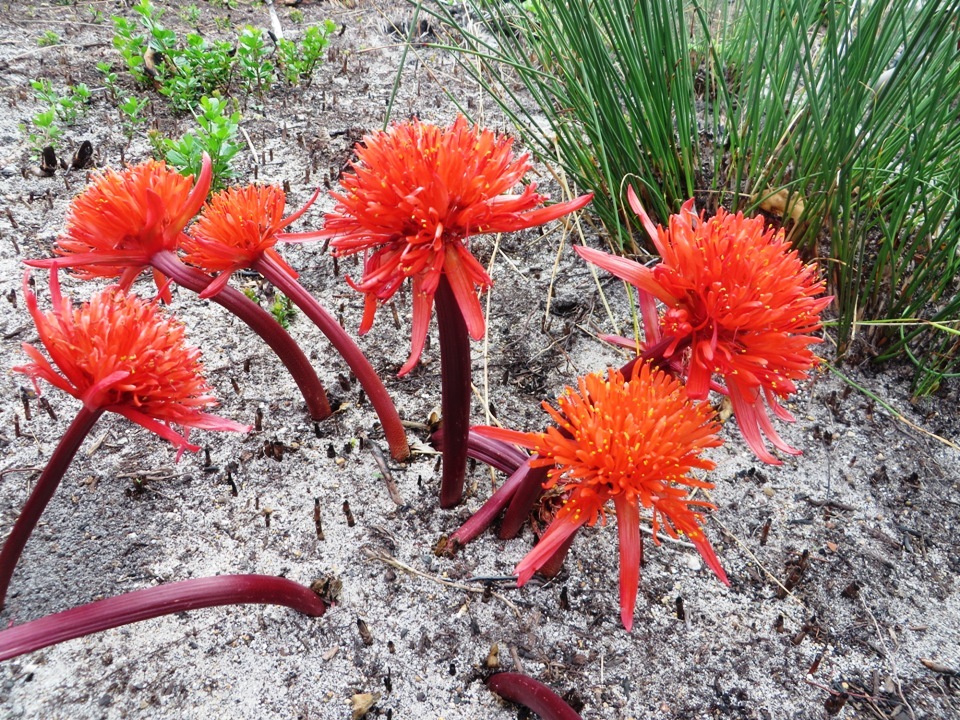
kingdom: Plantae
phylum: Tracheophyta
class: Liliopsida
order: Asparagales
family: Amaryllidaceae
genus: Haemanthus
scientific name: Haemanthus canaliculatus
